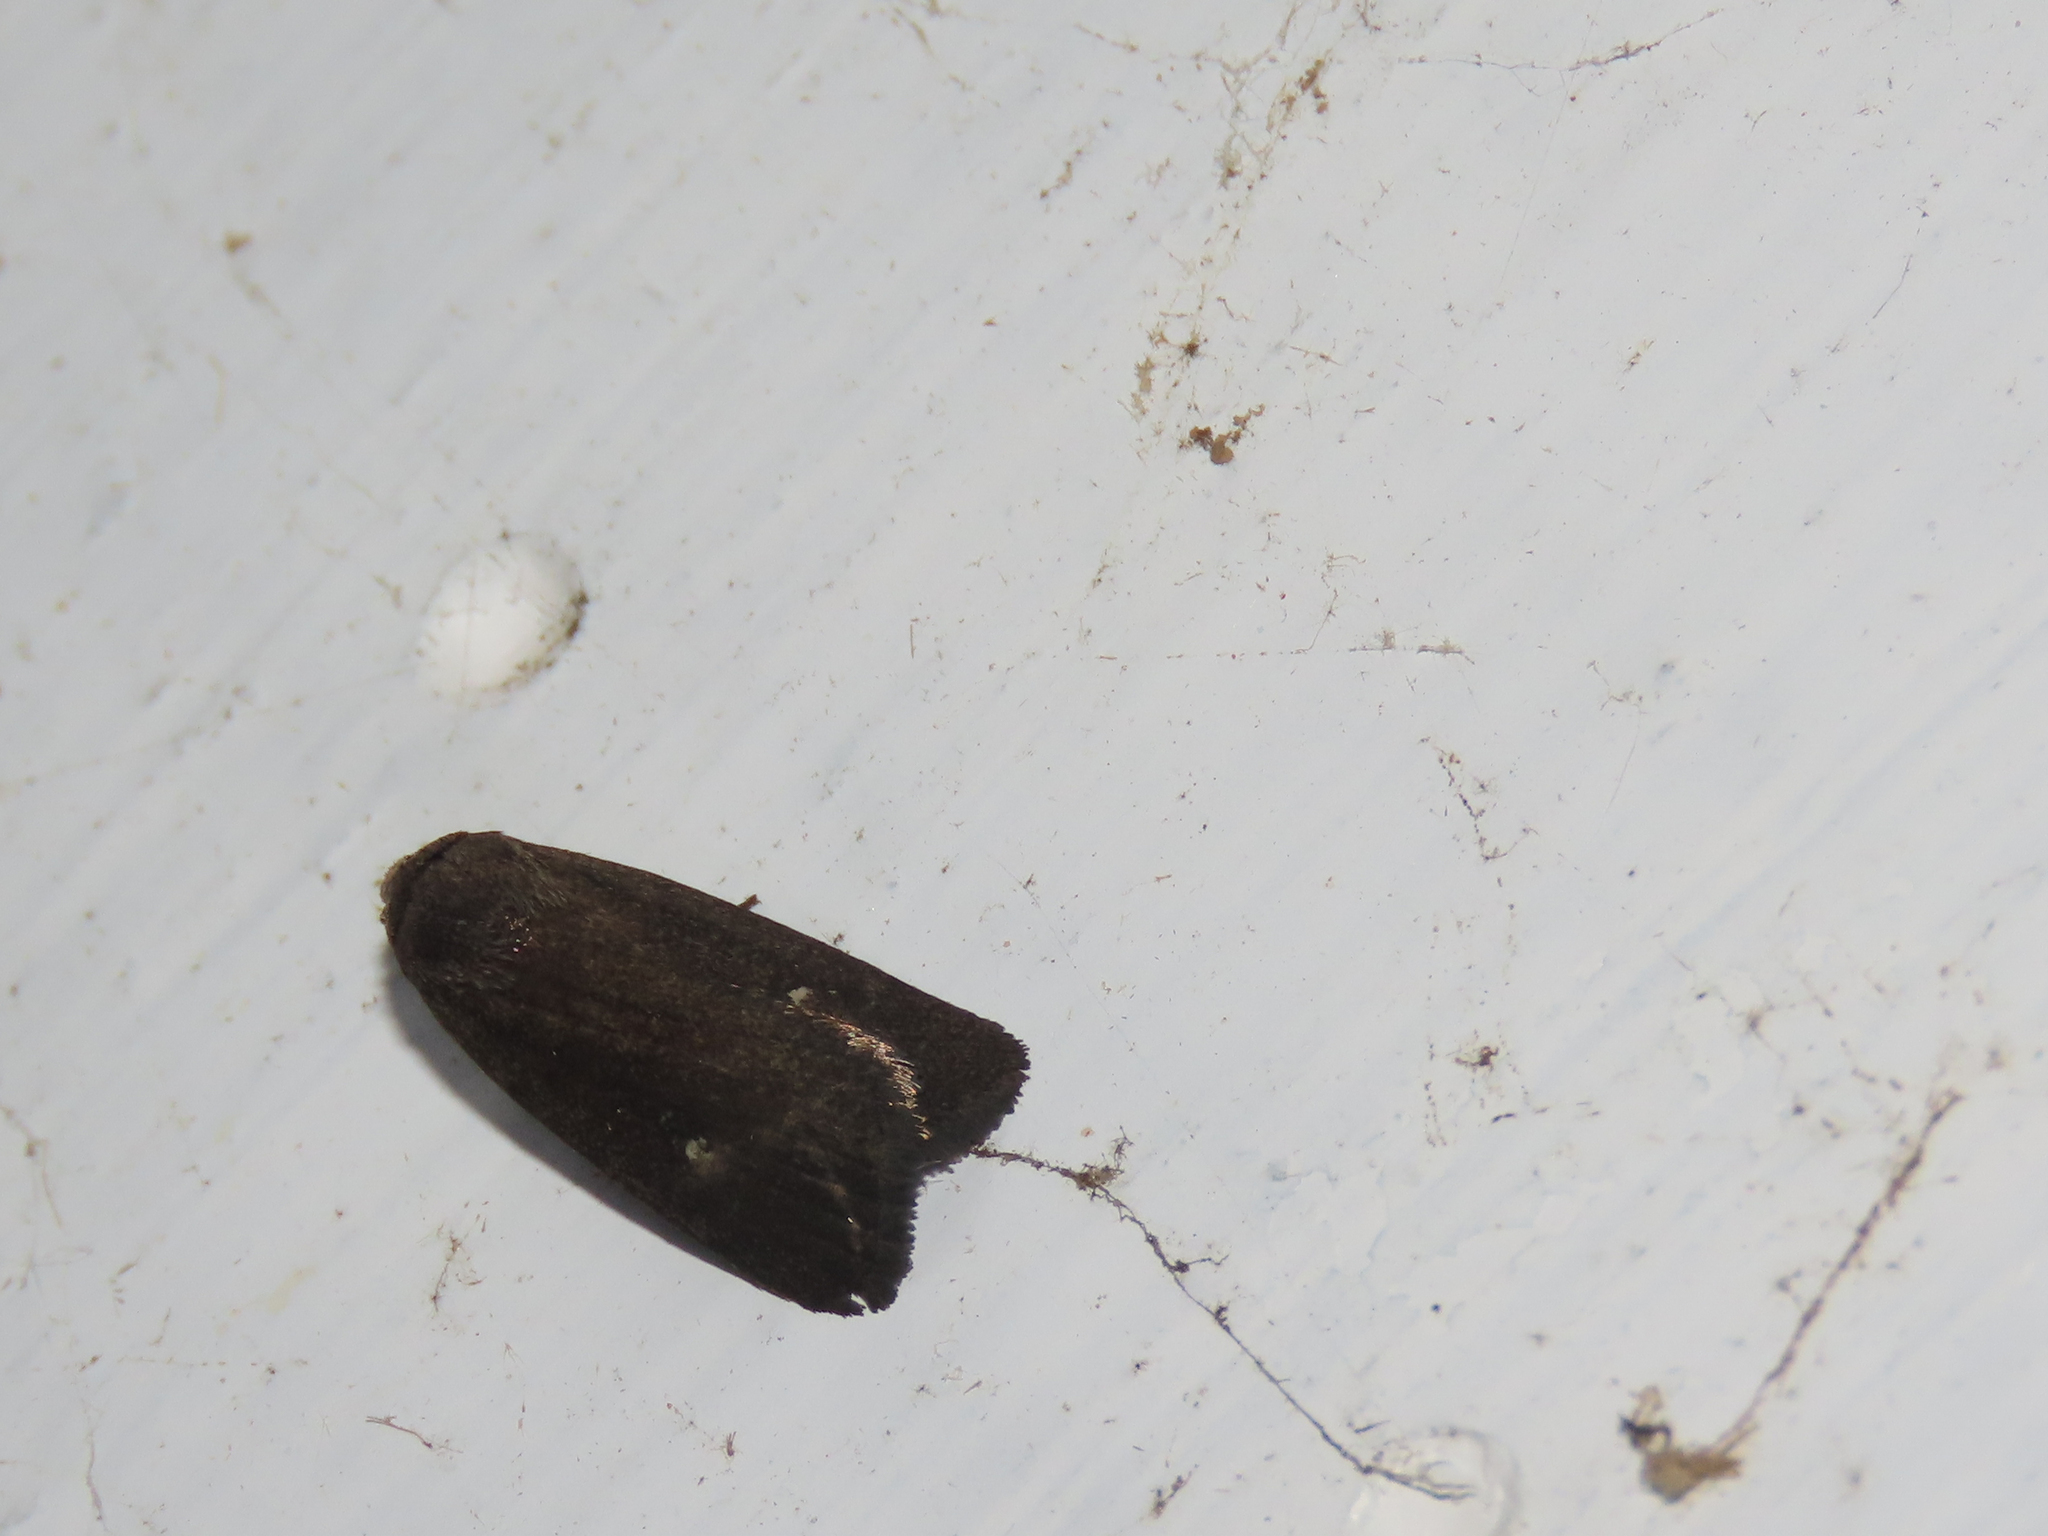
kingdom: Animalia
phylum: Arthropoda
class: Insecta
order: Lepidoptera
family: Noctuidae
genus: Proxenus
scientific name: Proxenus miranda
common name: Miranda moth
